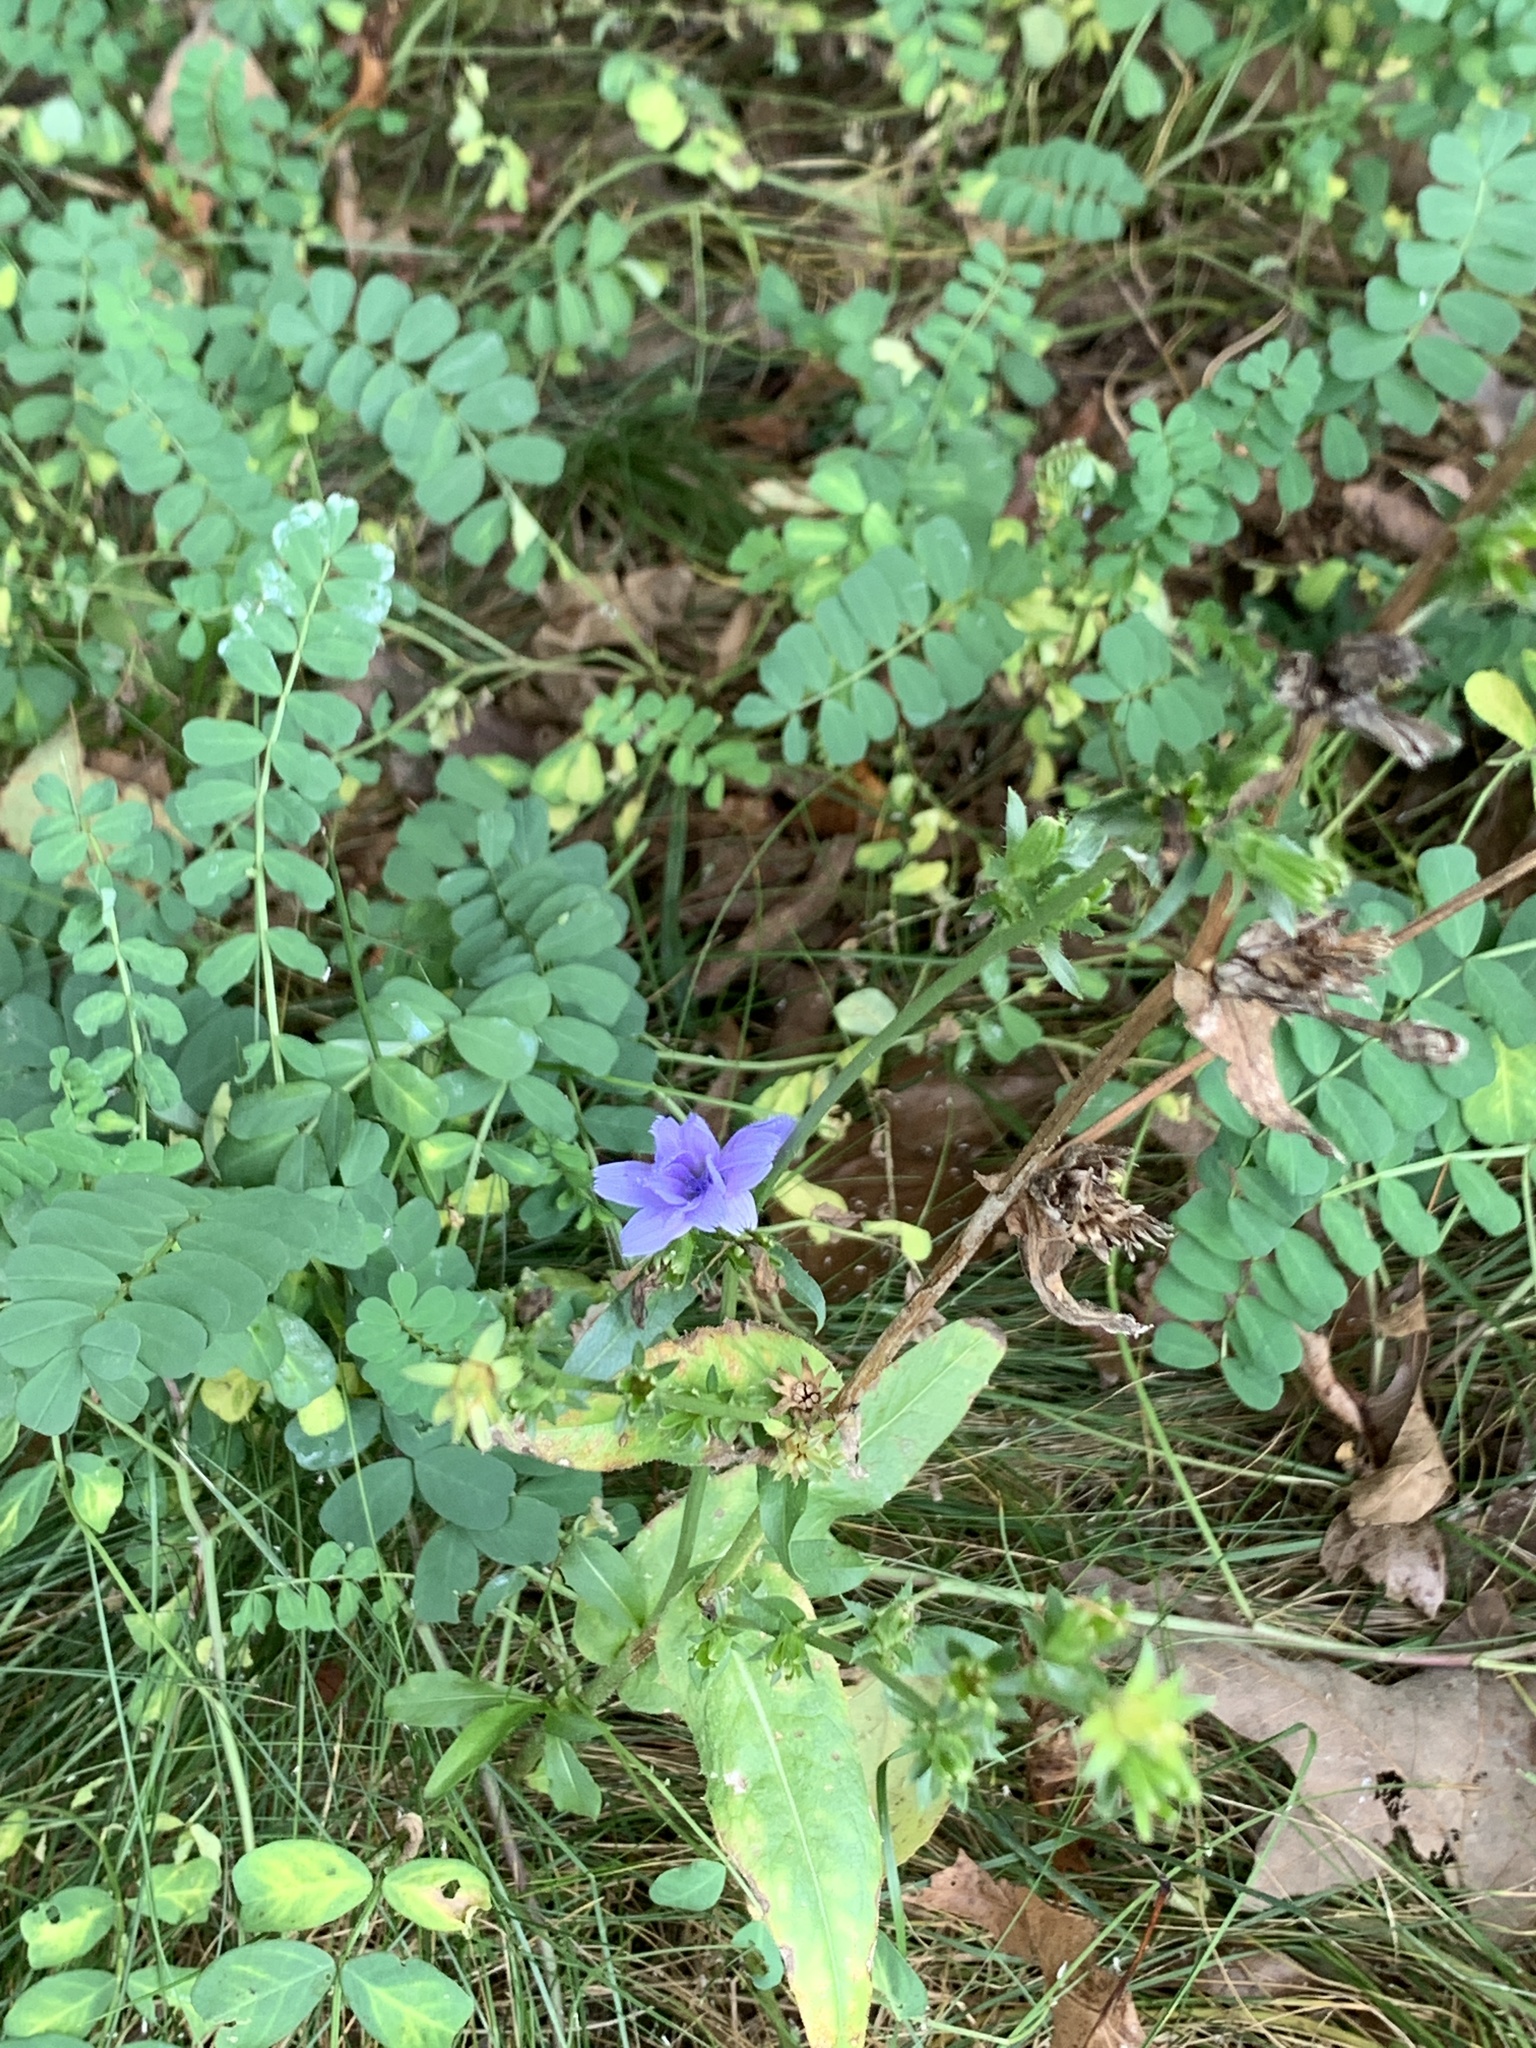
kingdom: Plantae
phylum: Tracheophyta
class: Magnoliopsida
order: Asterales
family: Asteraceae
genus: Cichorium
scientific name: Cichorium intybus
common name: Chicory
